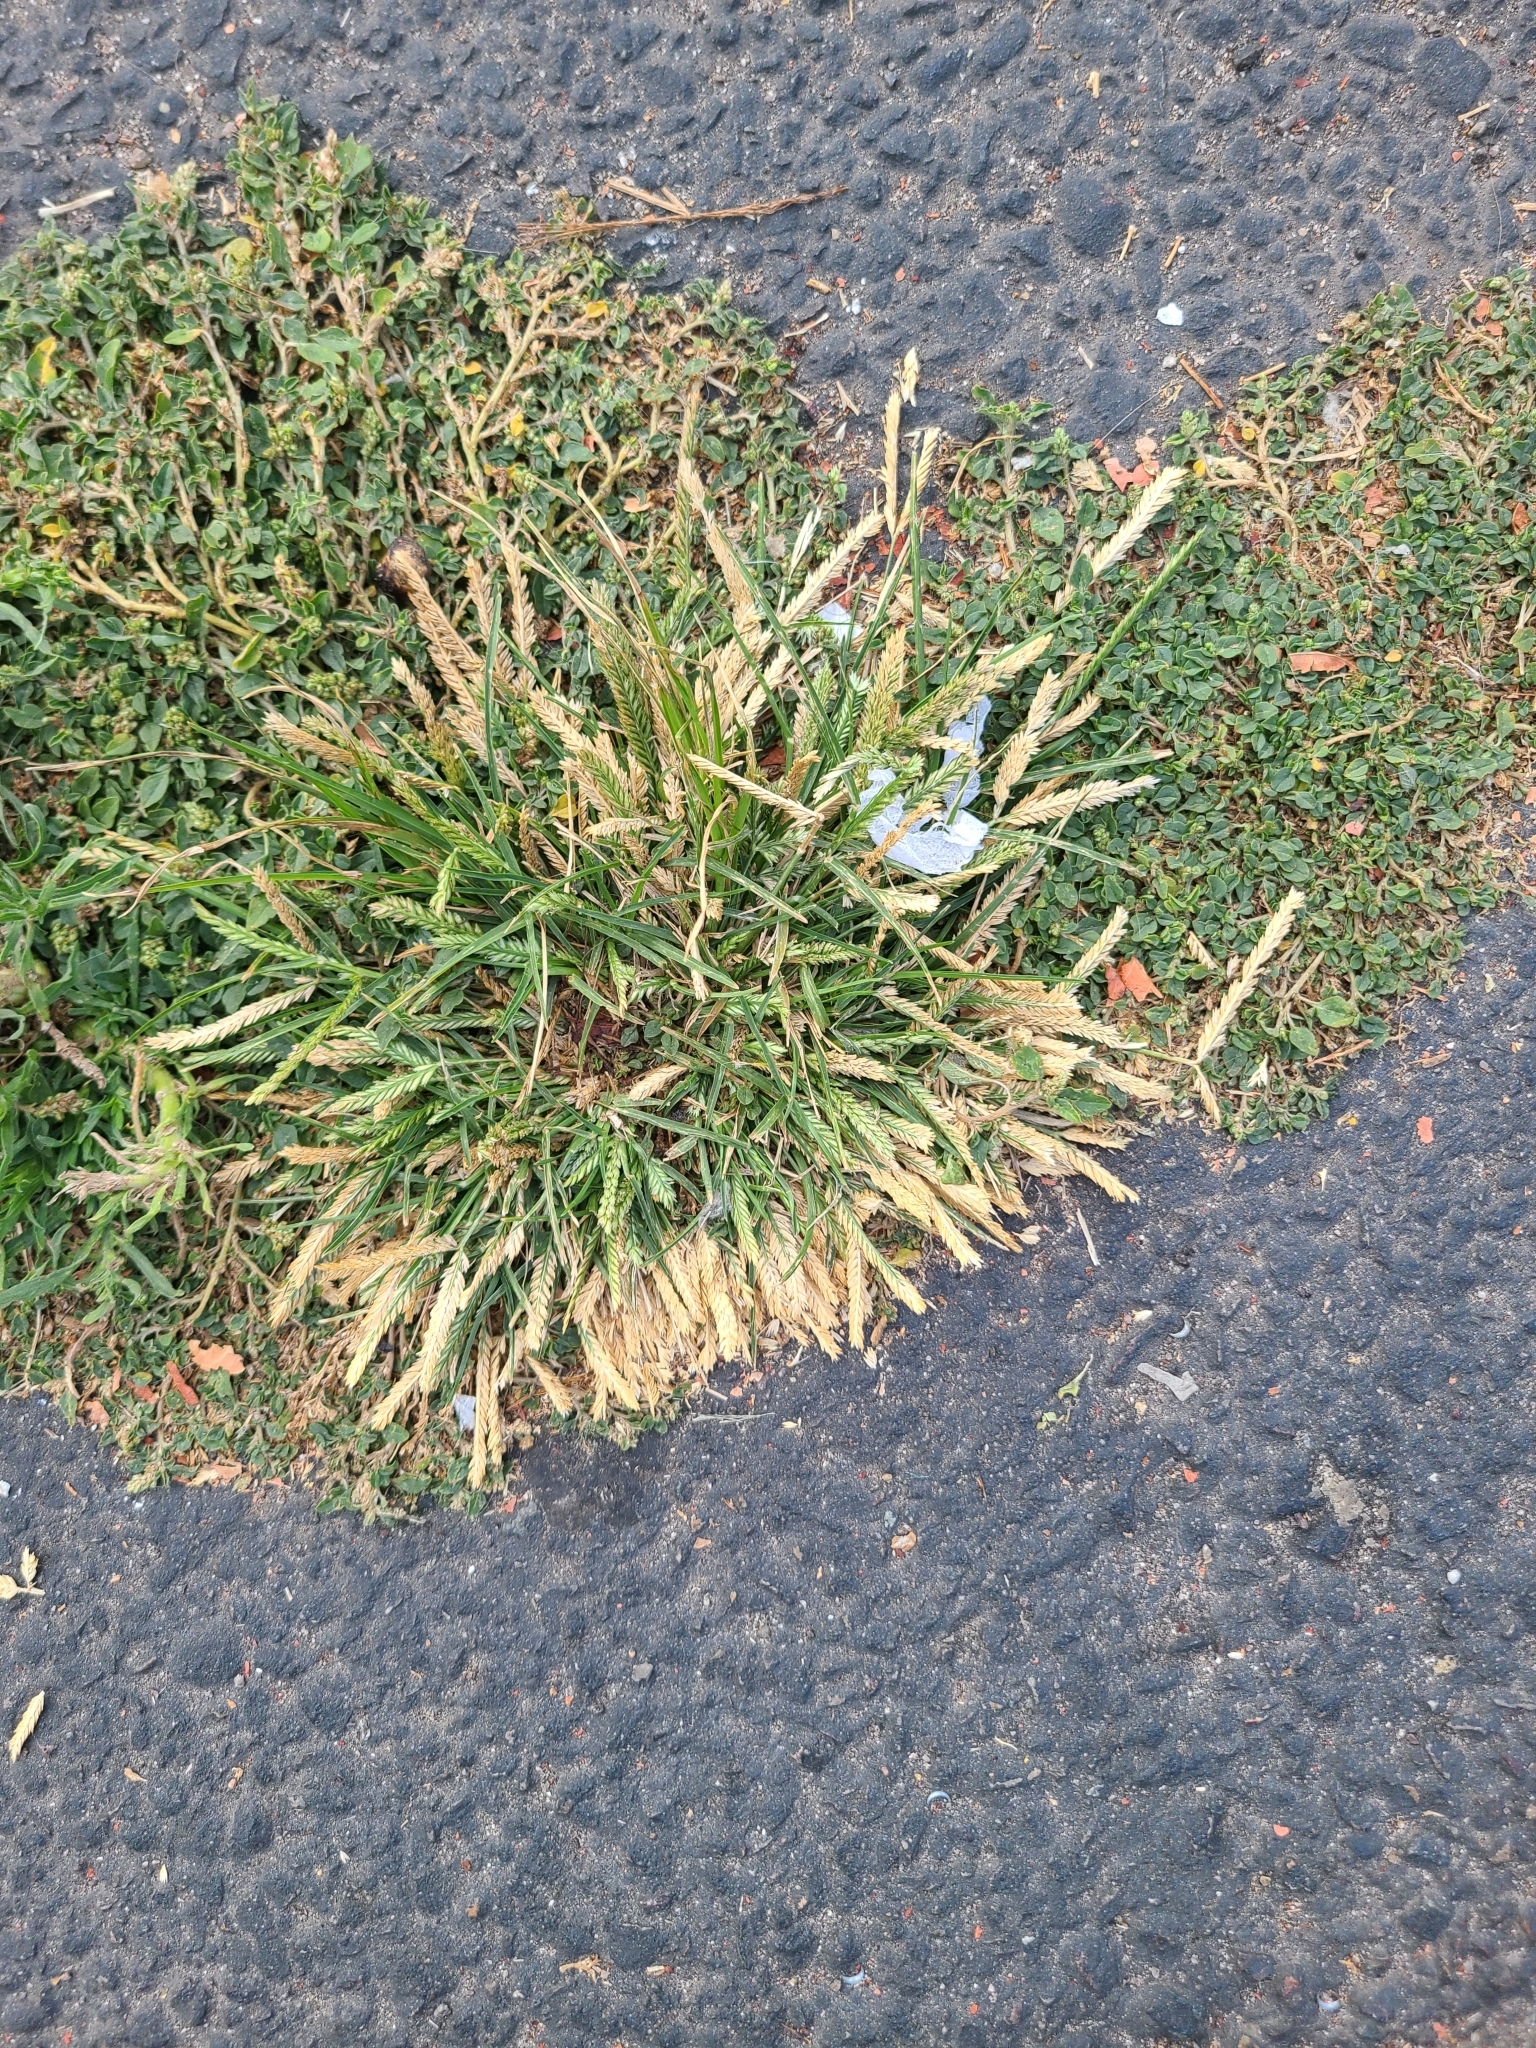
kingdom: Plantae
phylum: Tracheophyta
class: Liliopsida
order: Poales
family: Poaceae
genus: Eleusine
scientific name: Eleusine indica
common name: Yard-grass
